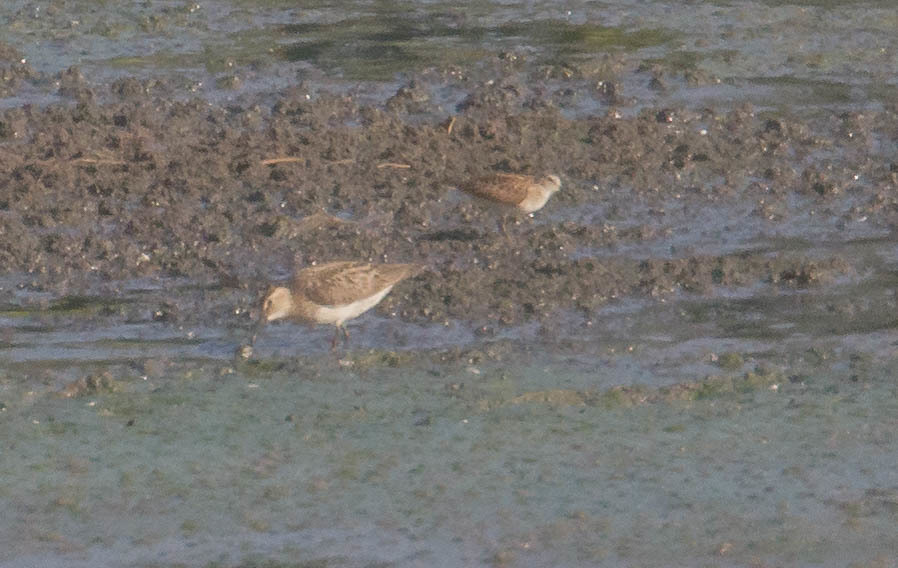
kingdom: Animalia
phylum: Chordata
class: Aves
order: Charadriiformes
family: Scolopacidae
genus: Calidris
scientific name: Calidris melanotos
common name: Pectoral sandpiper
